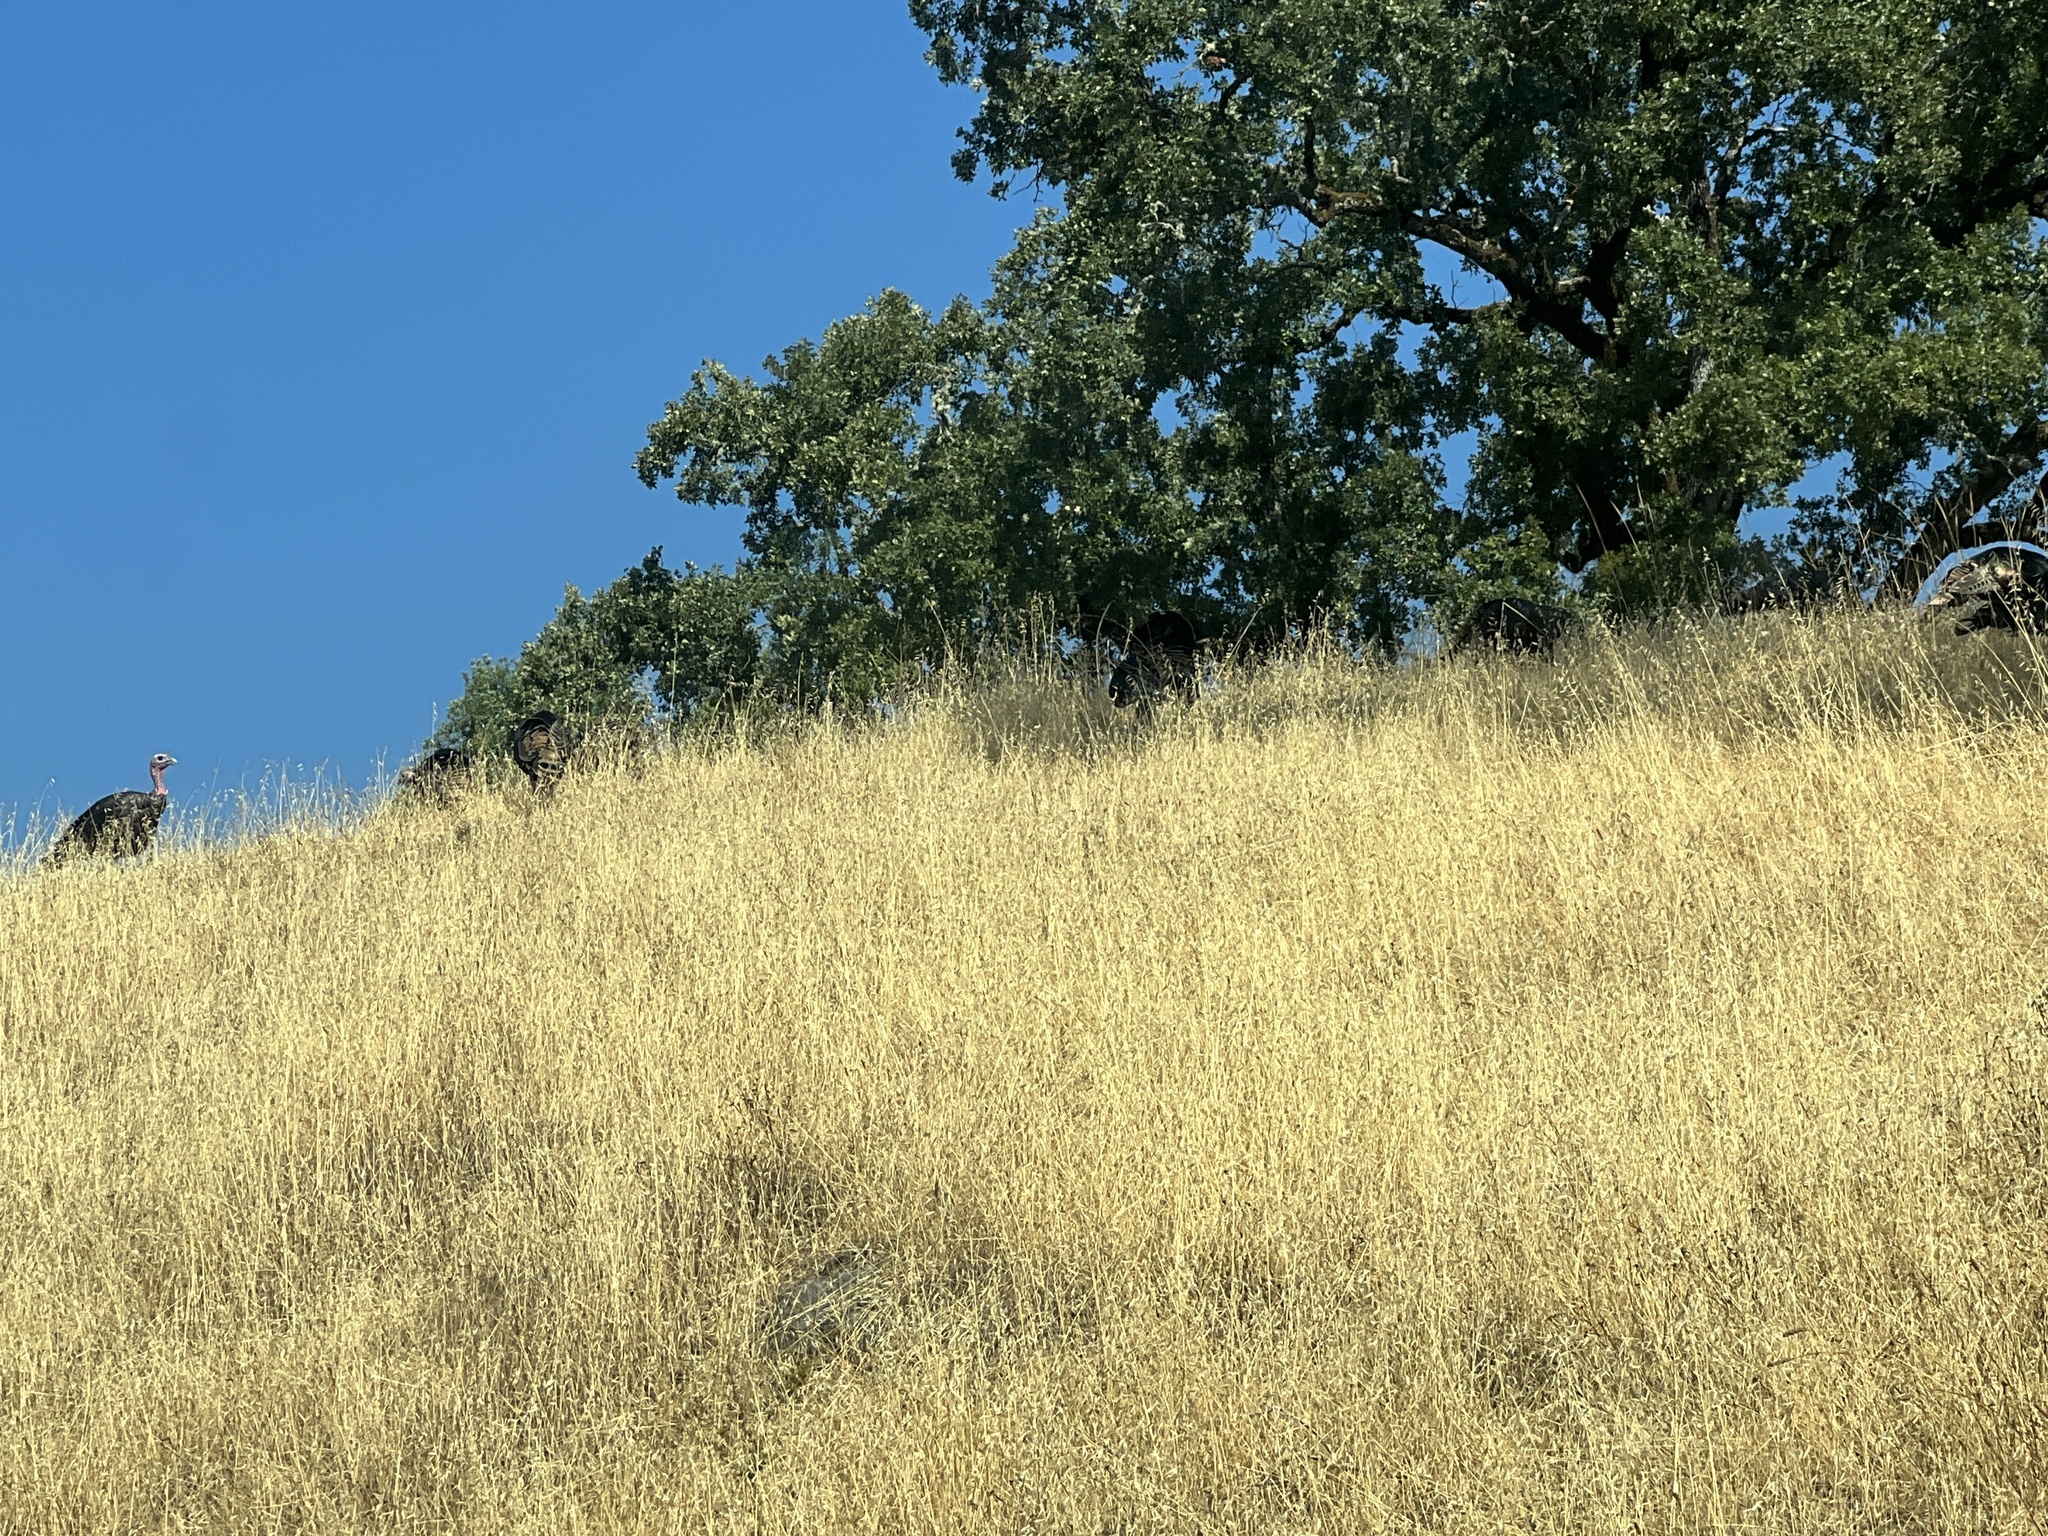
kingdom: Animalia
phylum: Chordata
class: Aves
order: Galliformes
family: Phasianidae
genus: Meleagris
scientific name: Meleagris gallopavo
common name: Wild turkey
